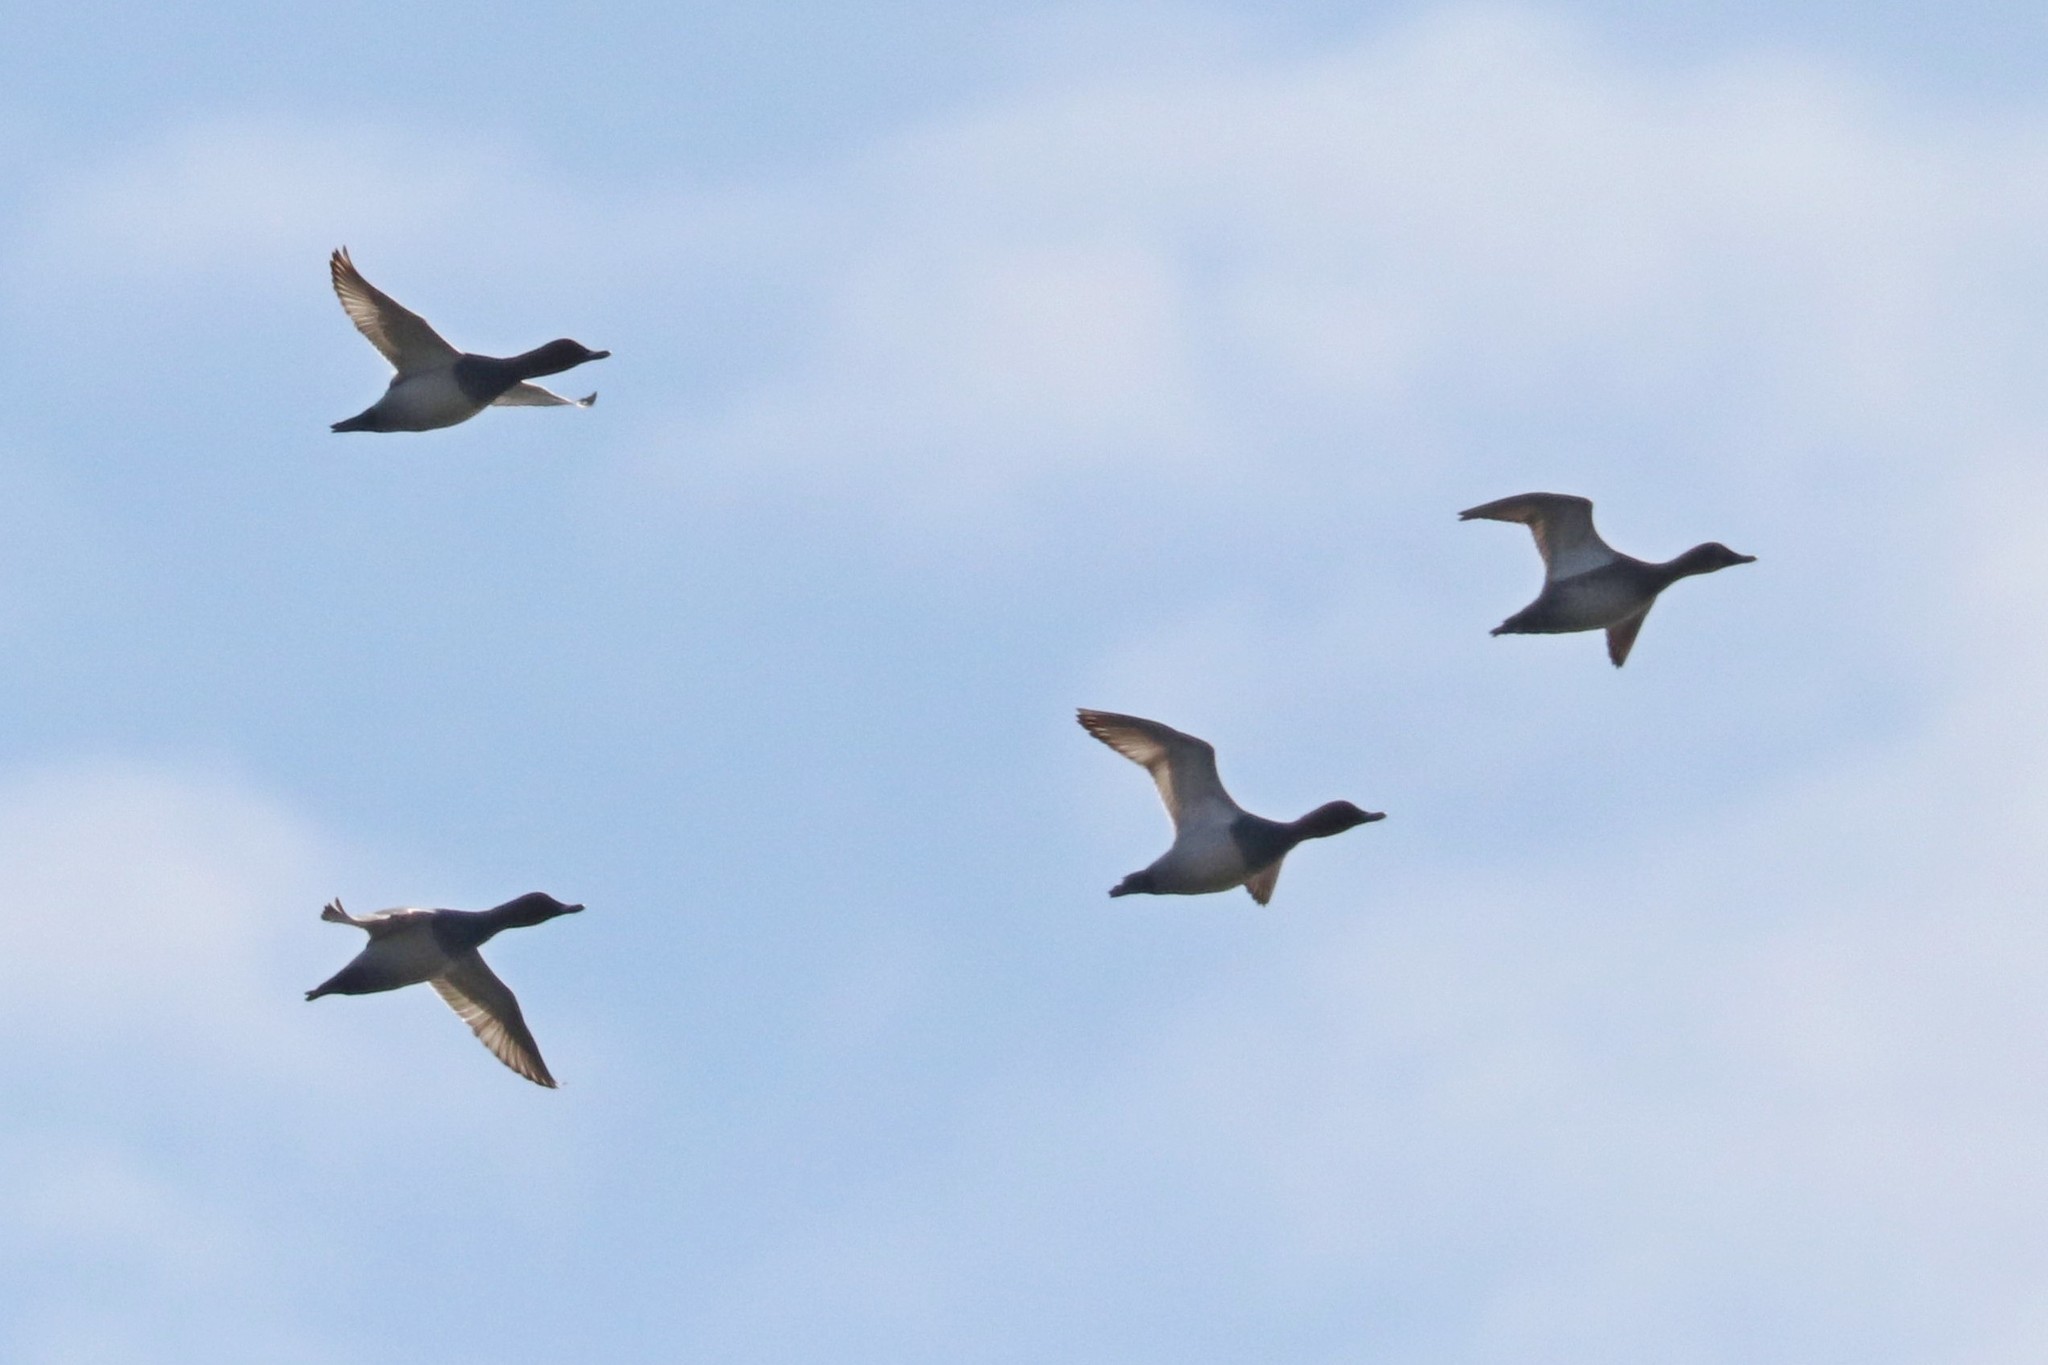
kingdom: Animalia
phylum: Chordata
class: Aves
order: Anseriformes
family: Anatidae
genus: Aythya
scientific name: Aythya ferina
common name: Common pochard
